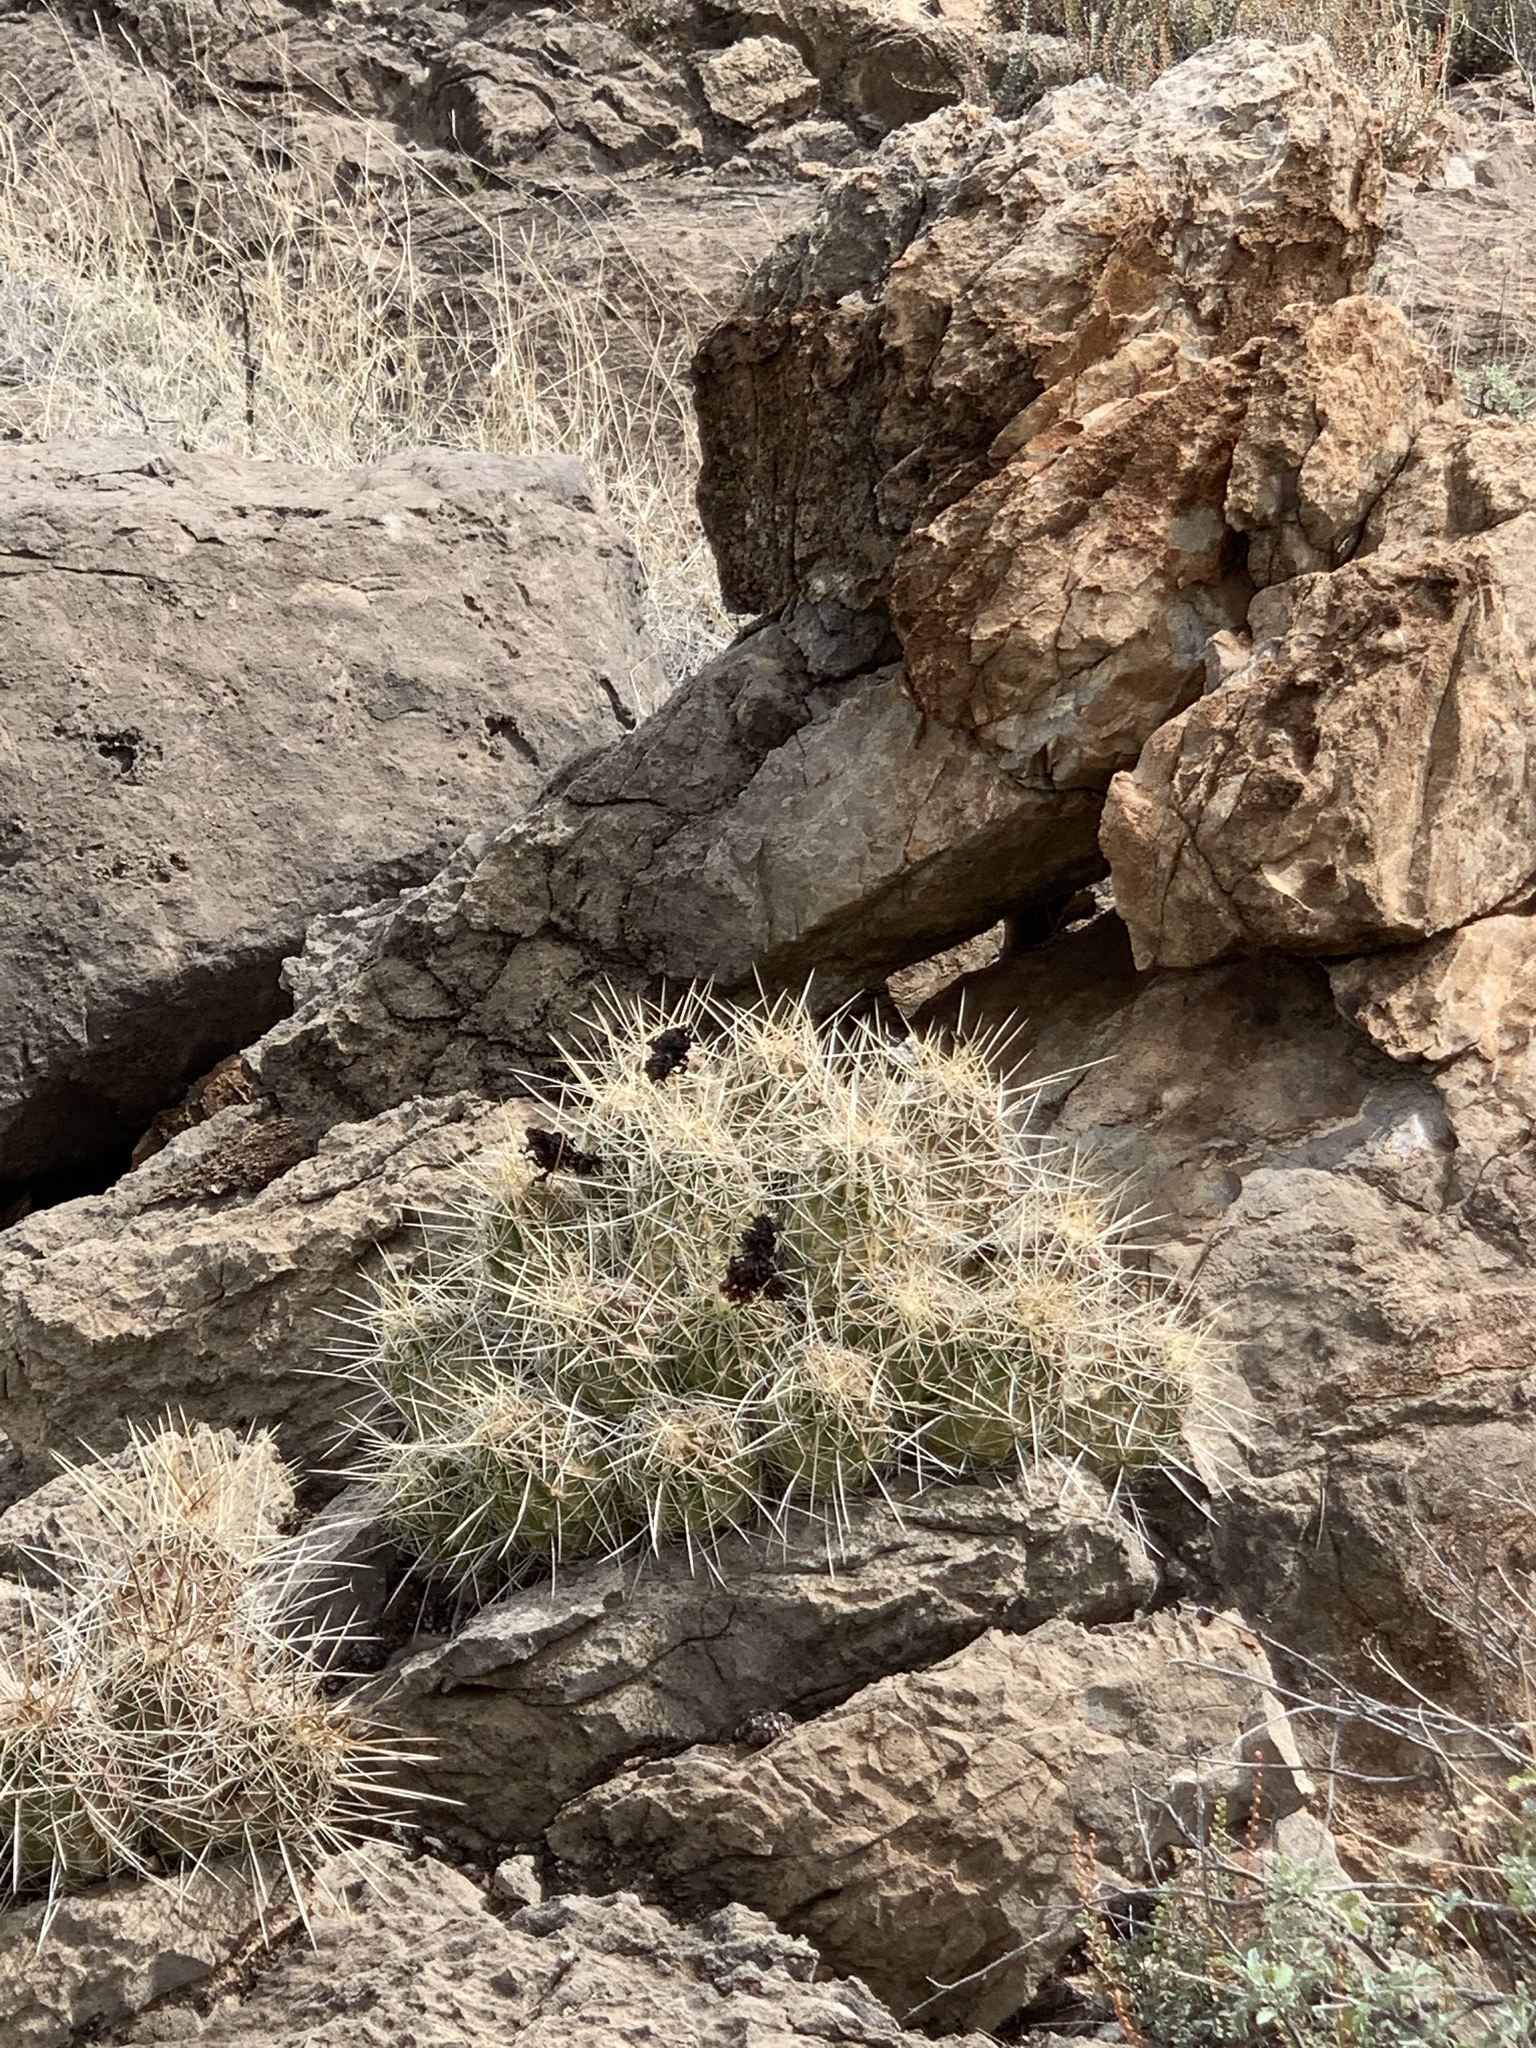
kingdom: Plantae
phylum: Tracheophyta
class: Magnoliopsida
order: Caryophyllales
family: Cactaceae
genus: Echinocereus
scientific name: Echinocereus stramineus
